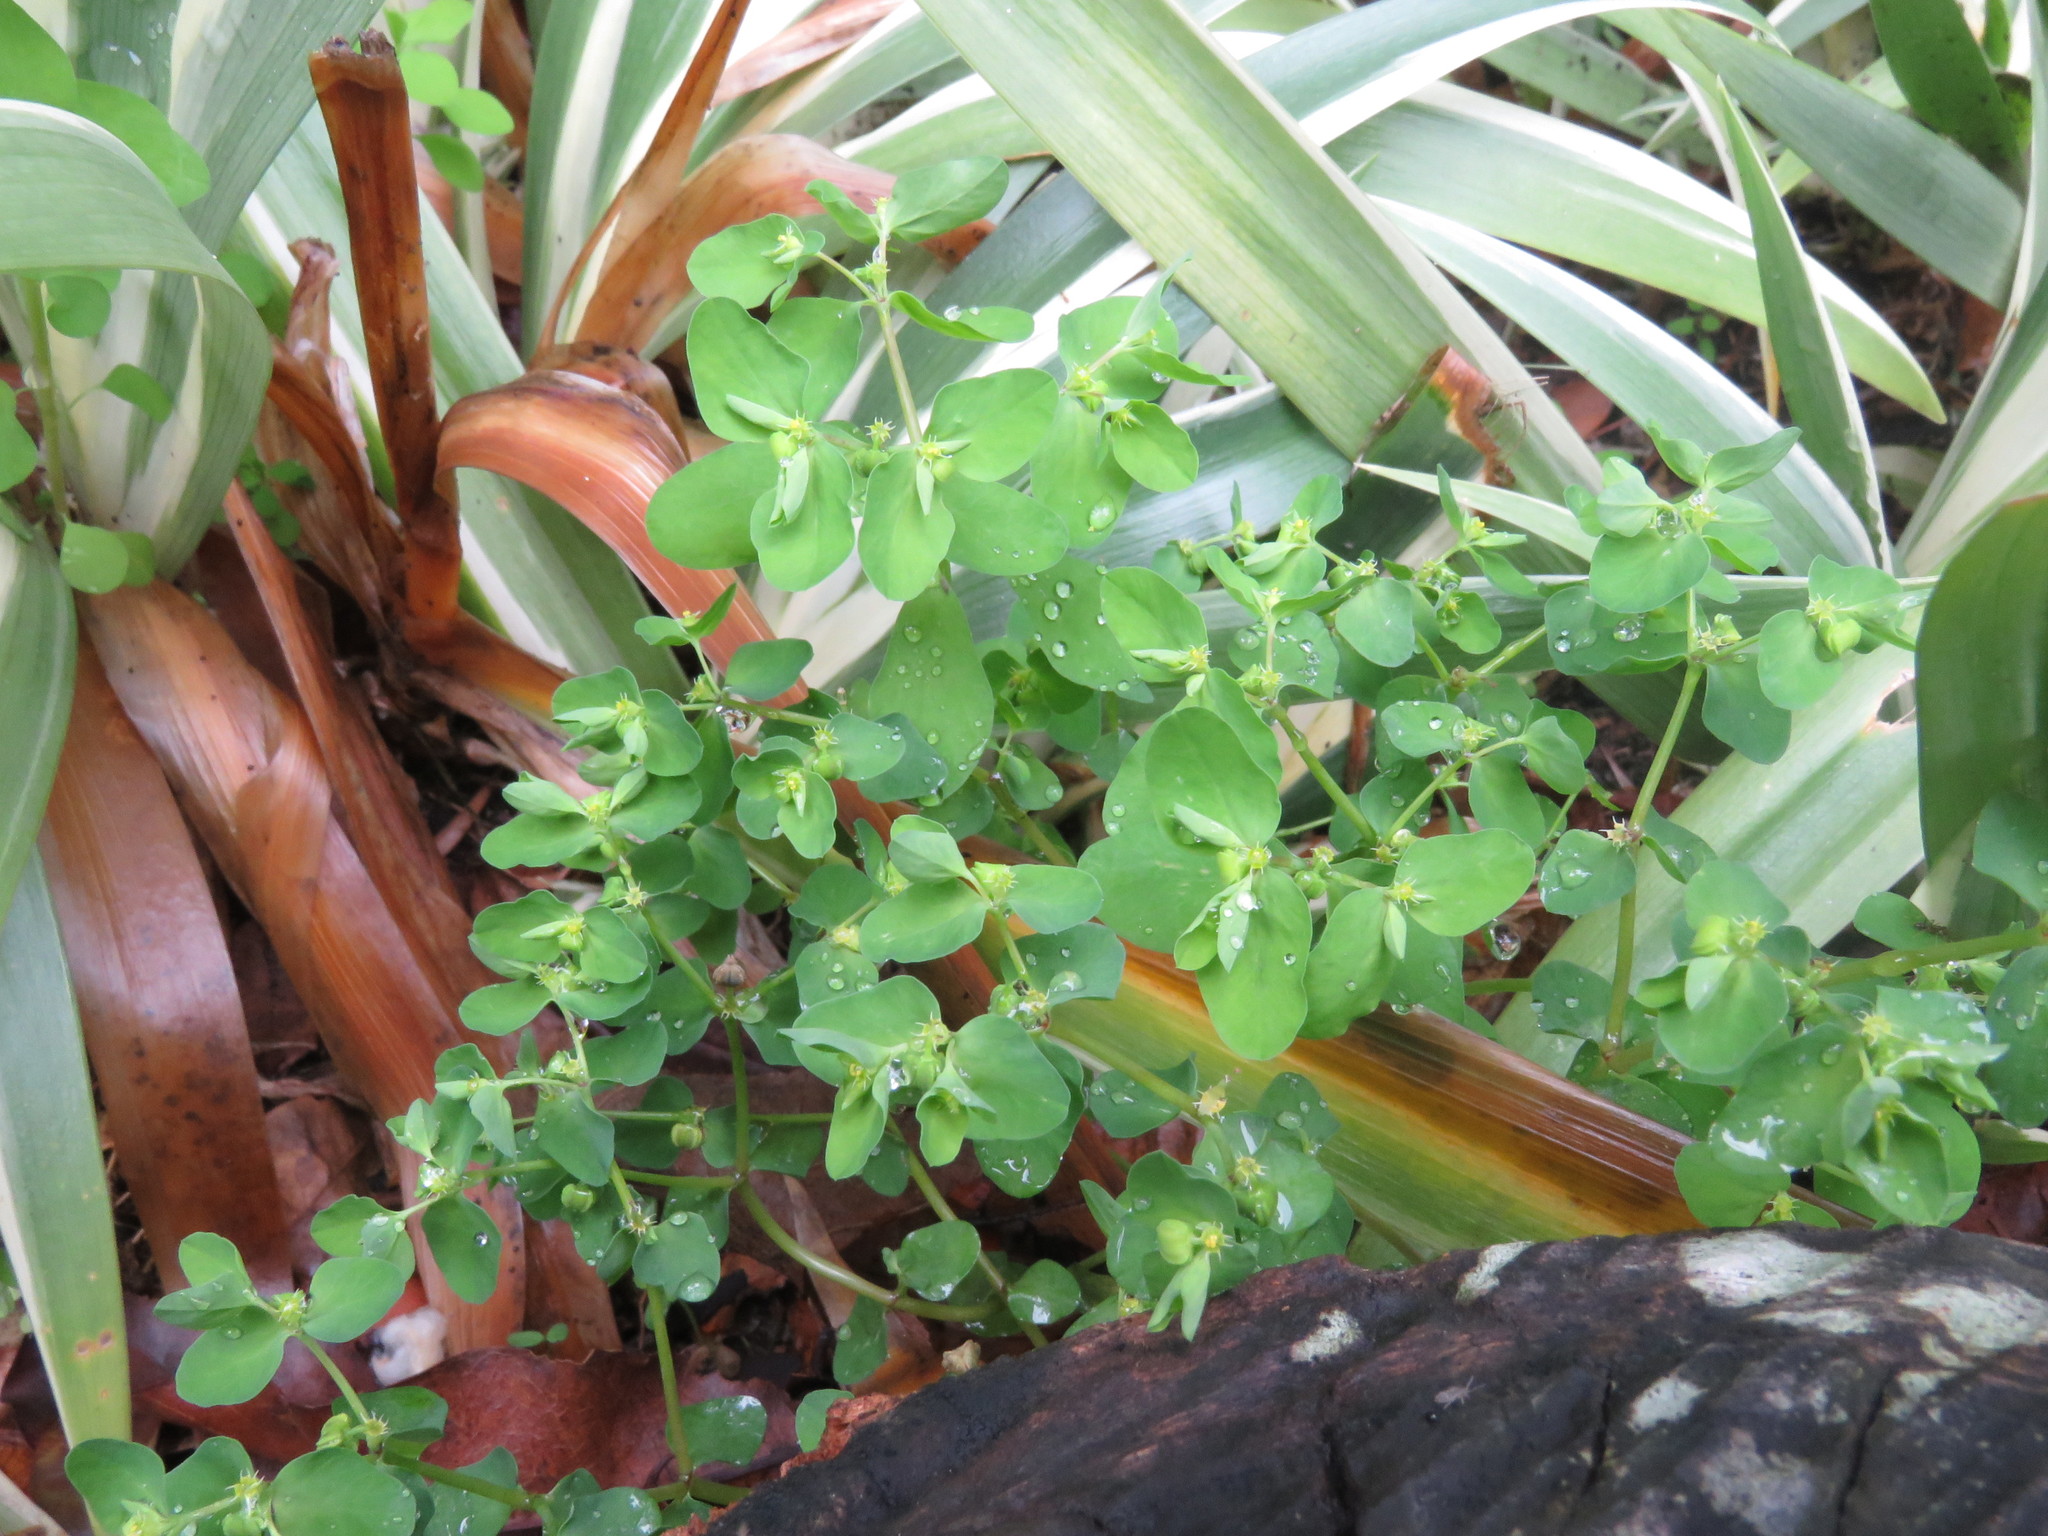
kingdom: Plantae
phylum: Tracheophyta
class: Magnoliopsida
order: Malpighiales
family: Euphorbiaceae
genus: Euphorbia
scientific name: Euphorbia peplus
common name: Petty spurge
